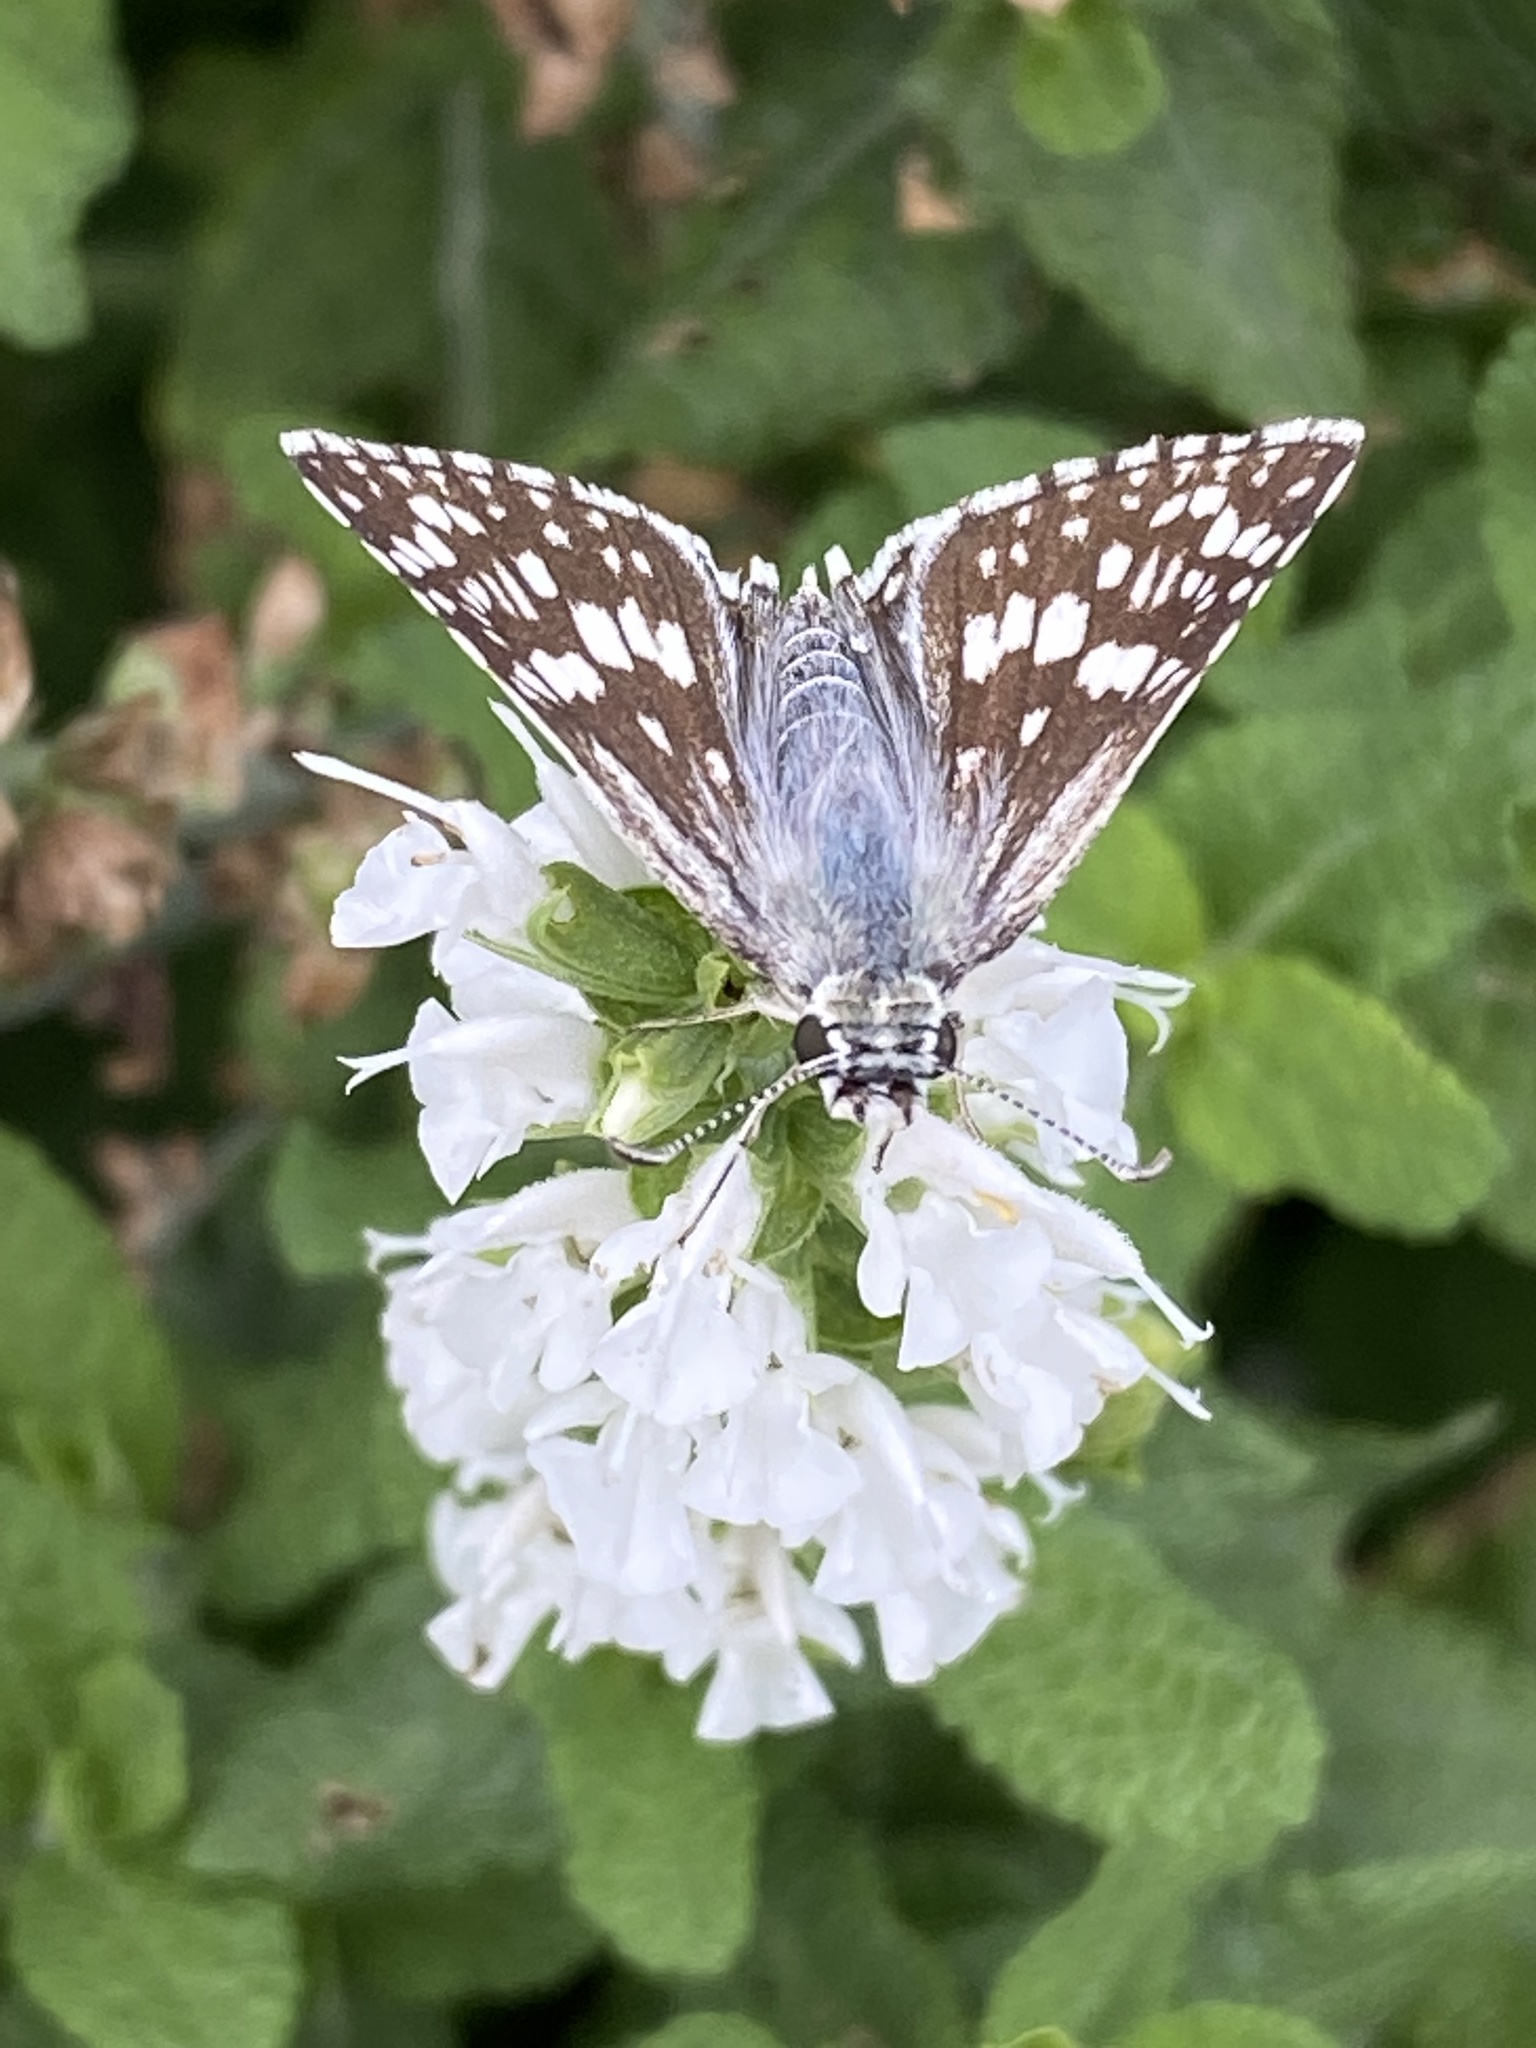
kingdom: Animalia
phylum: Arthropoda
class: Insecta
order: Lepidoptera
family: Hesperiidae
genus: Burnsius
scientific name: Burnsius communis
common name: Common checkered-skipper
